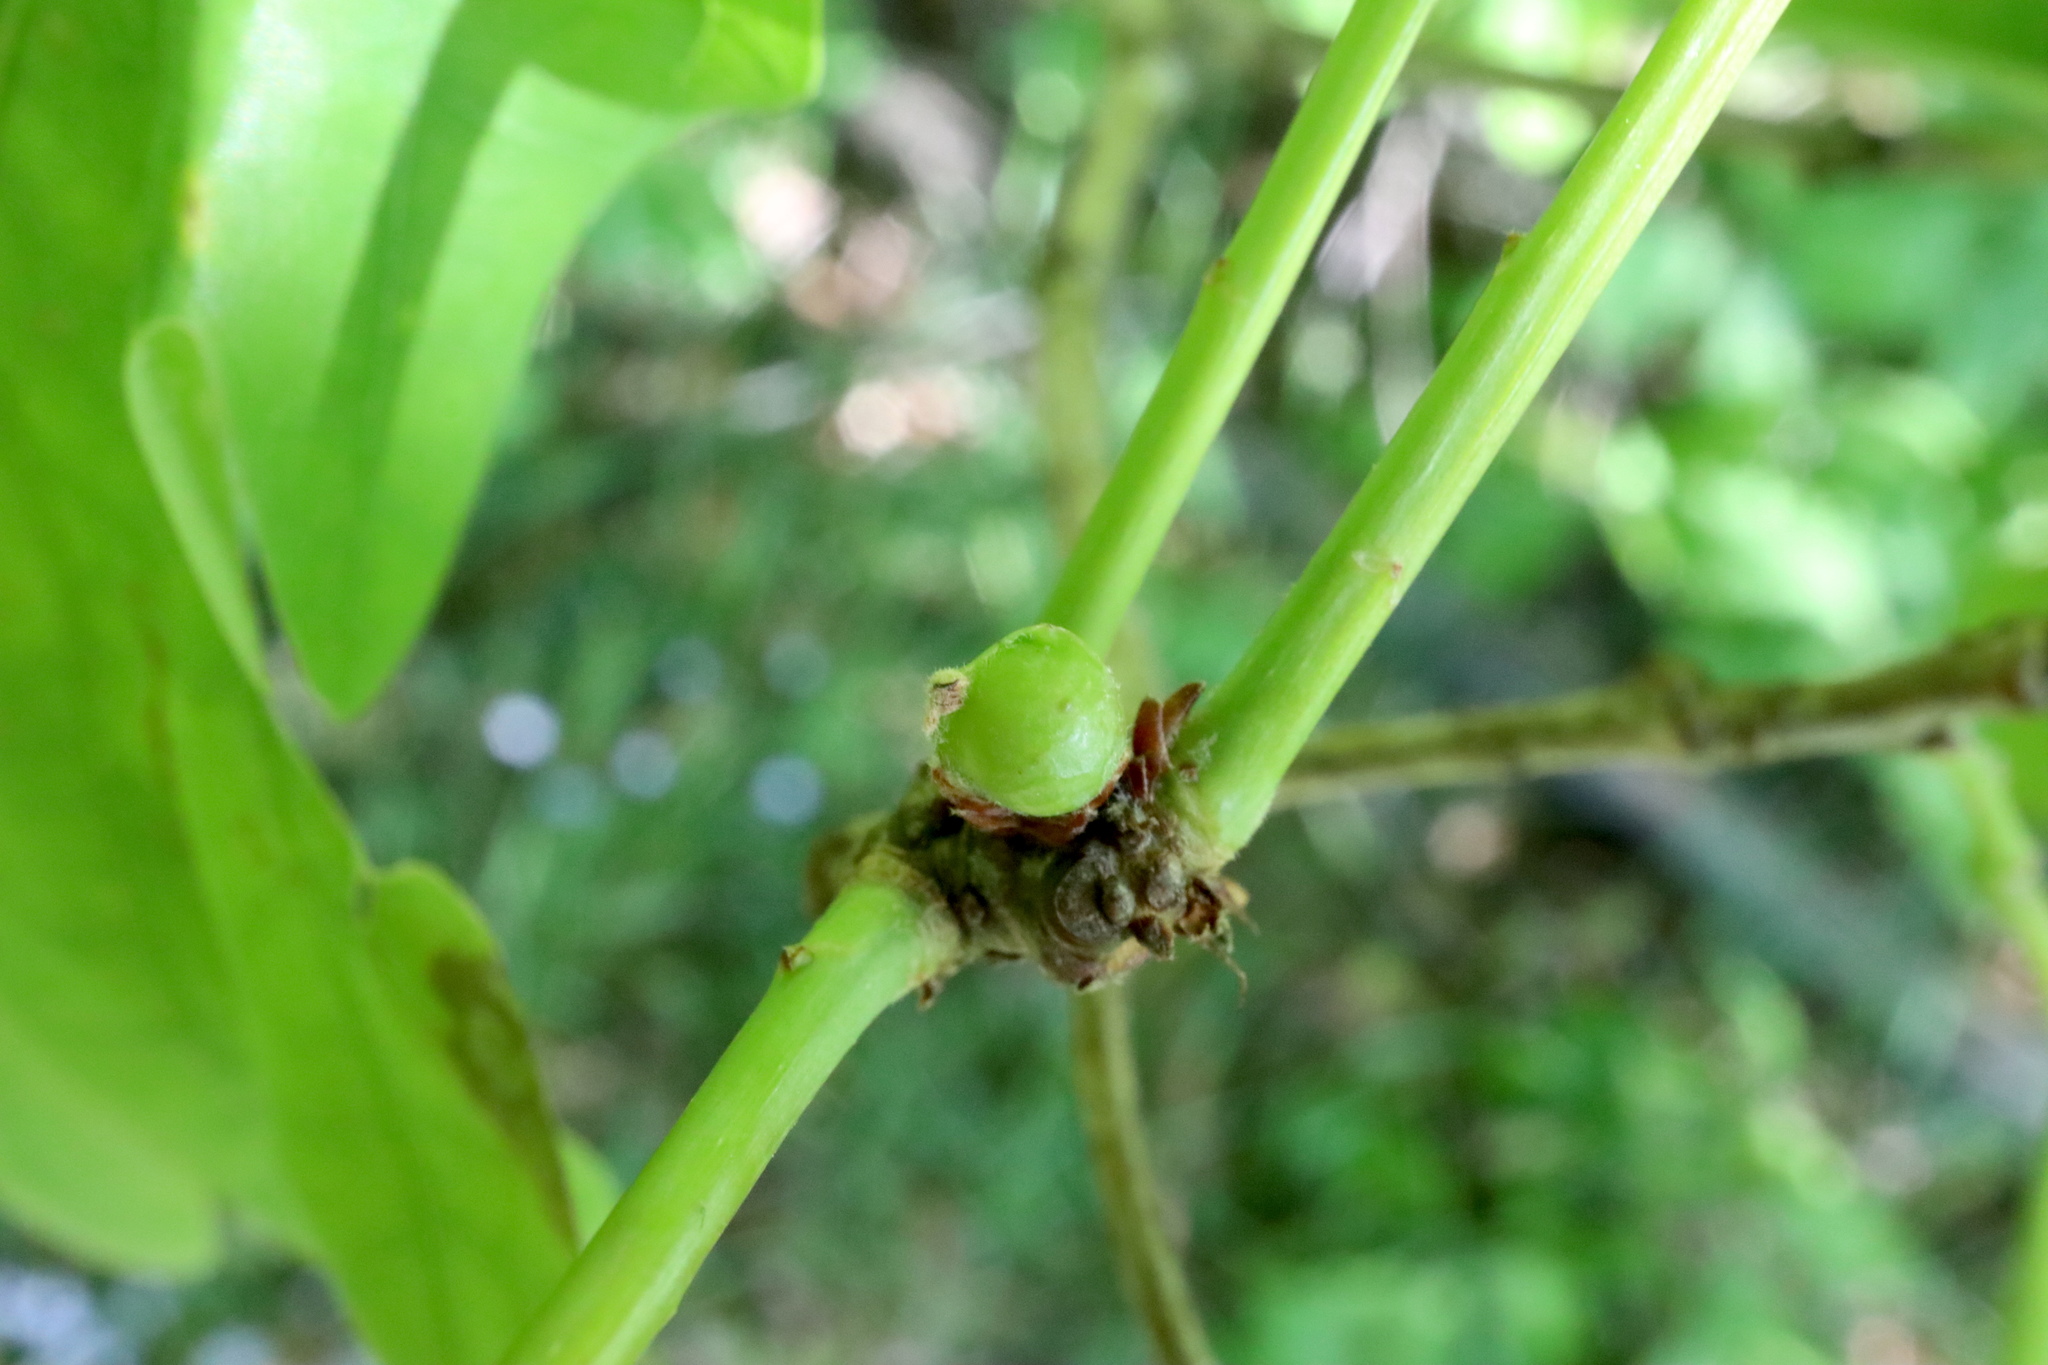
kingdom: Animalia
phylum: Arthropoda
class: Insecta
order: Hymenoptera
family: Cynipidae
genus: Andricus
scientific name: Andricus
